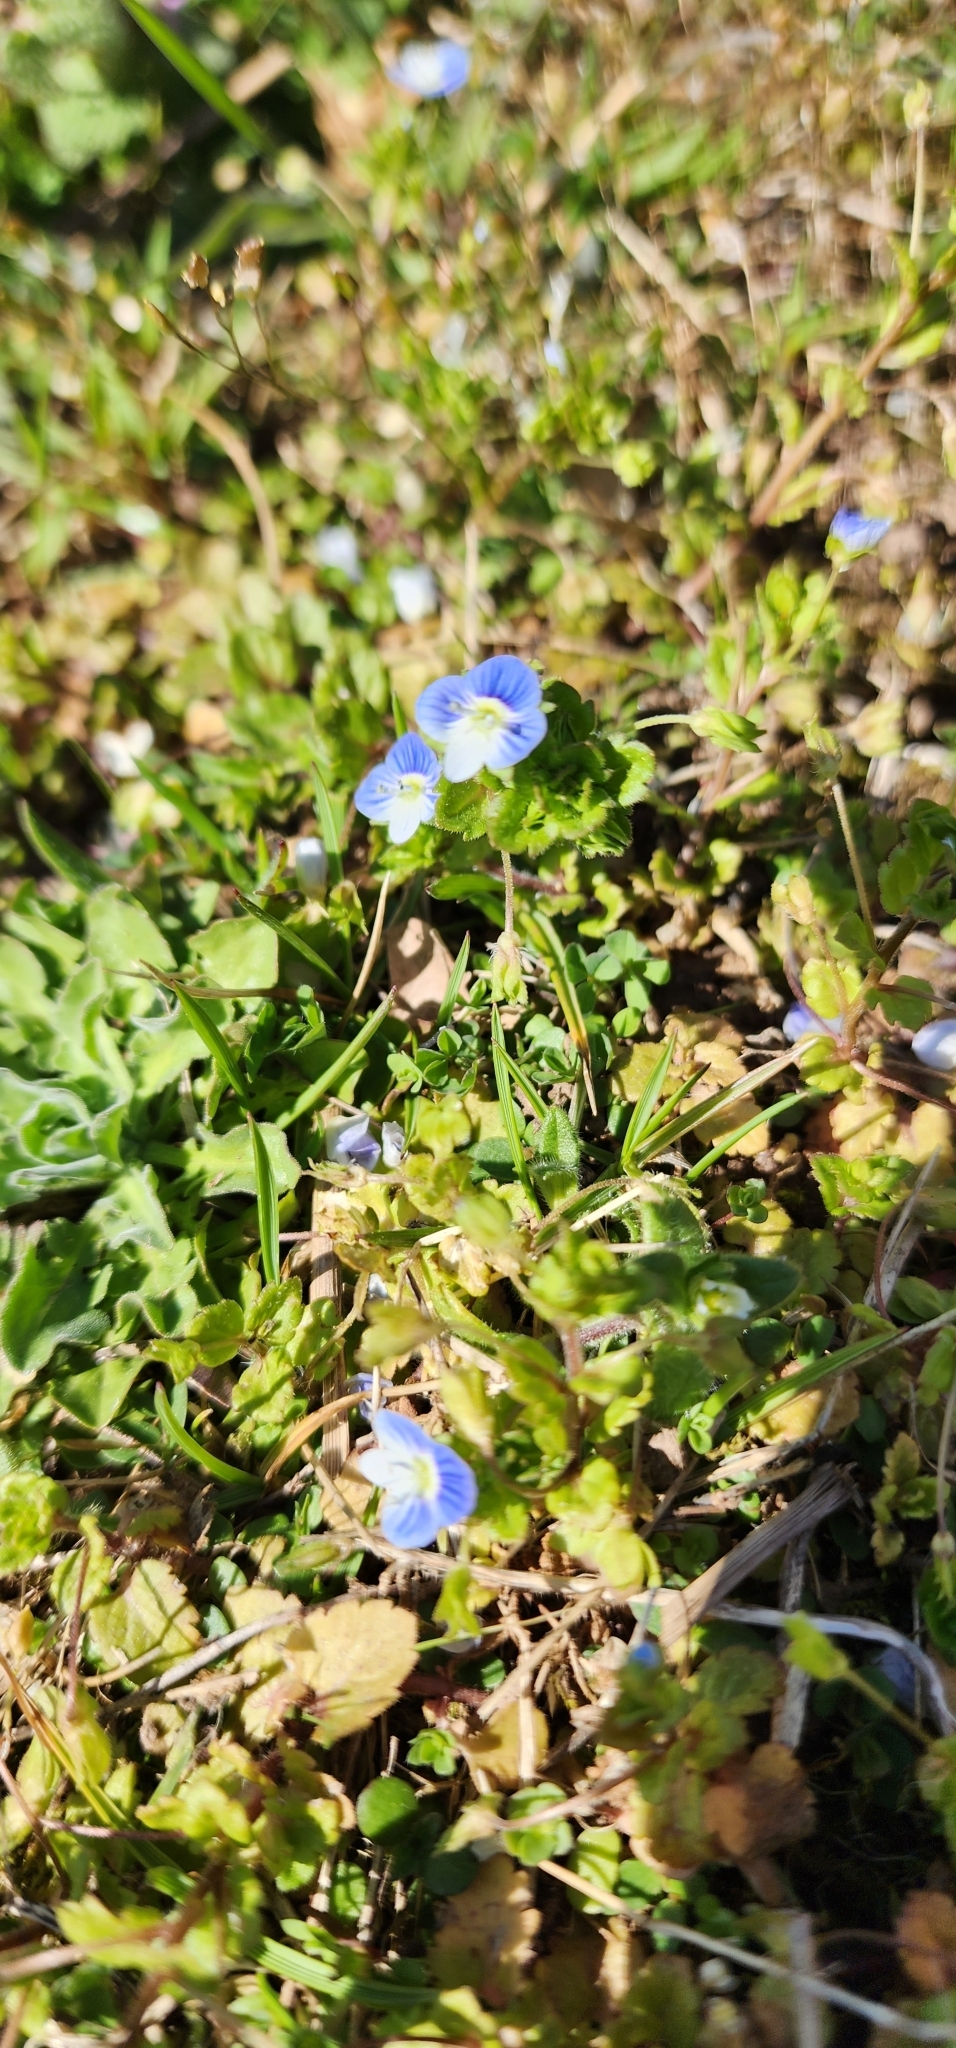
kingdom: Plantae
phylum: Tracheophyta
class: Magnoliopsida
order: Lamiales
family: Plantaginaceae
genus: Veronica
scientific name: Veronica persica
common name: Common field-speedwell
